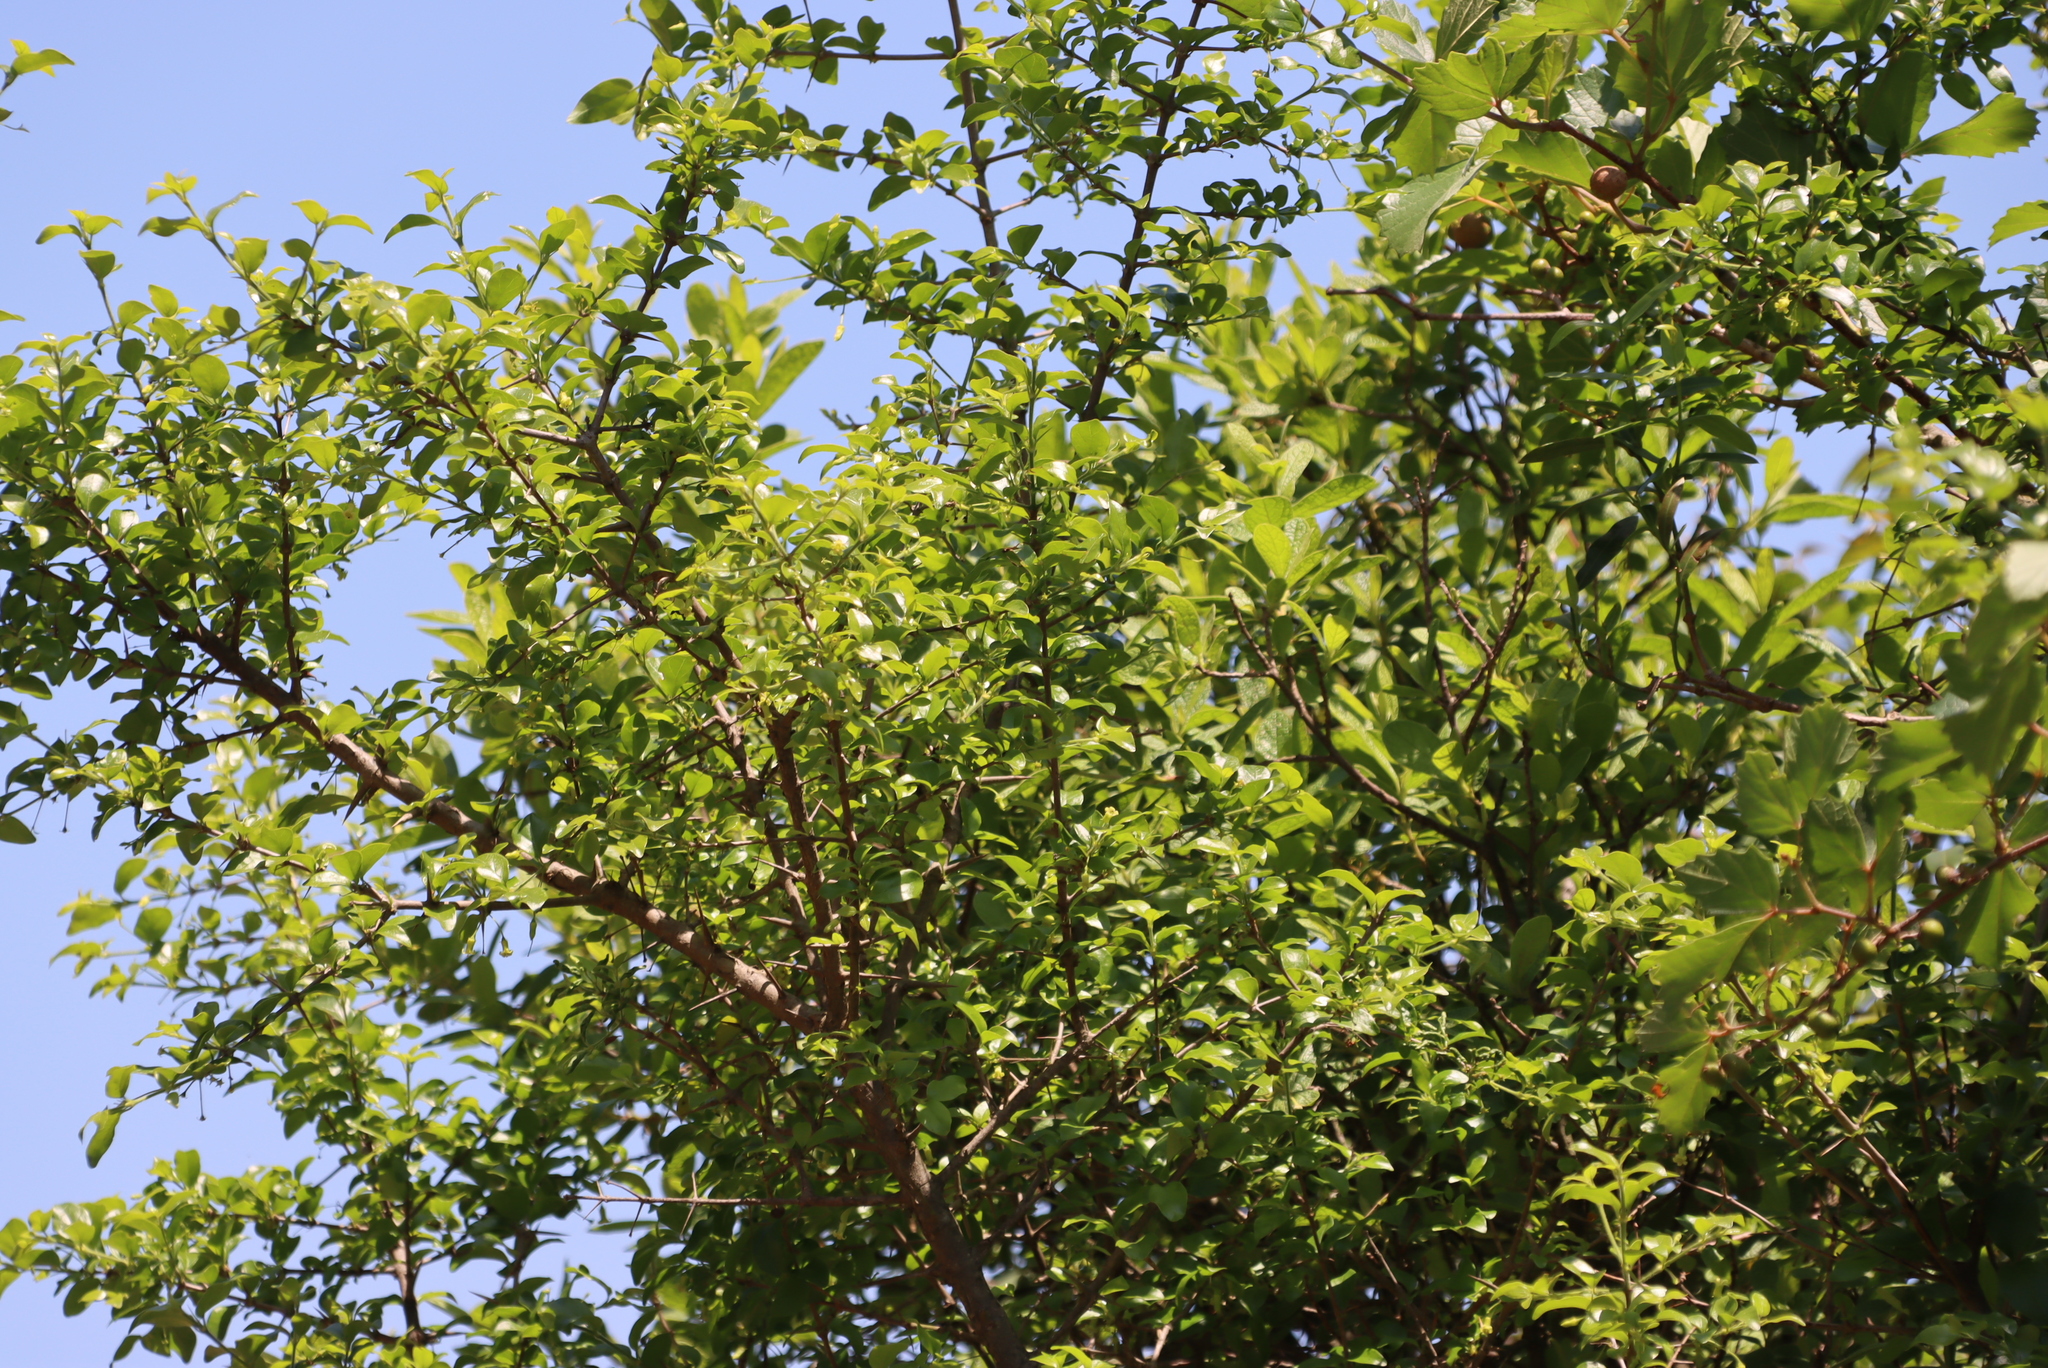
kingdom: Plantae
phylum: Tracheophyta
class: Magnoliopsida
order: Gentianales
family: Rubiaceae
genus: Canthium
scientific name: Canthium ciliatum
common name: Hairy turkey-berry
